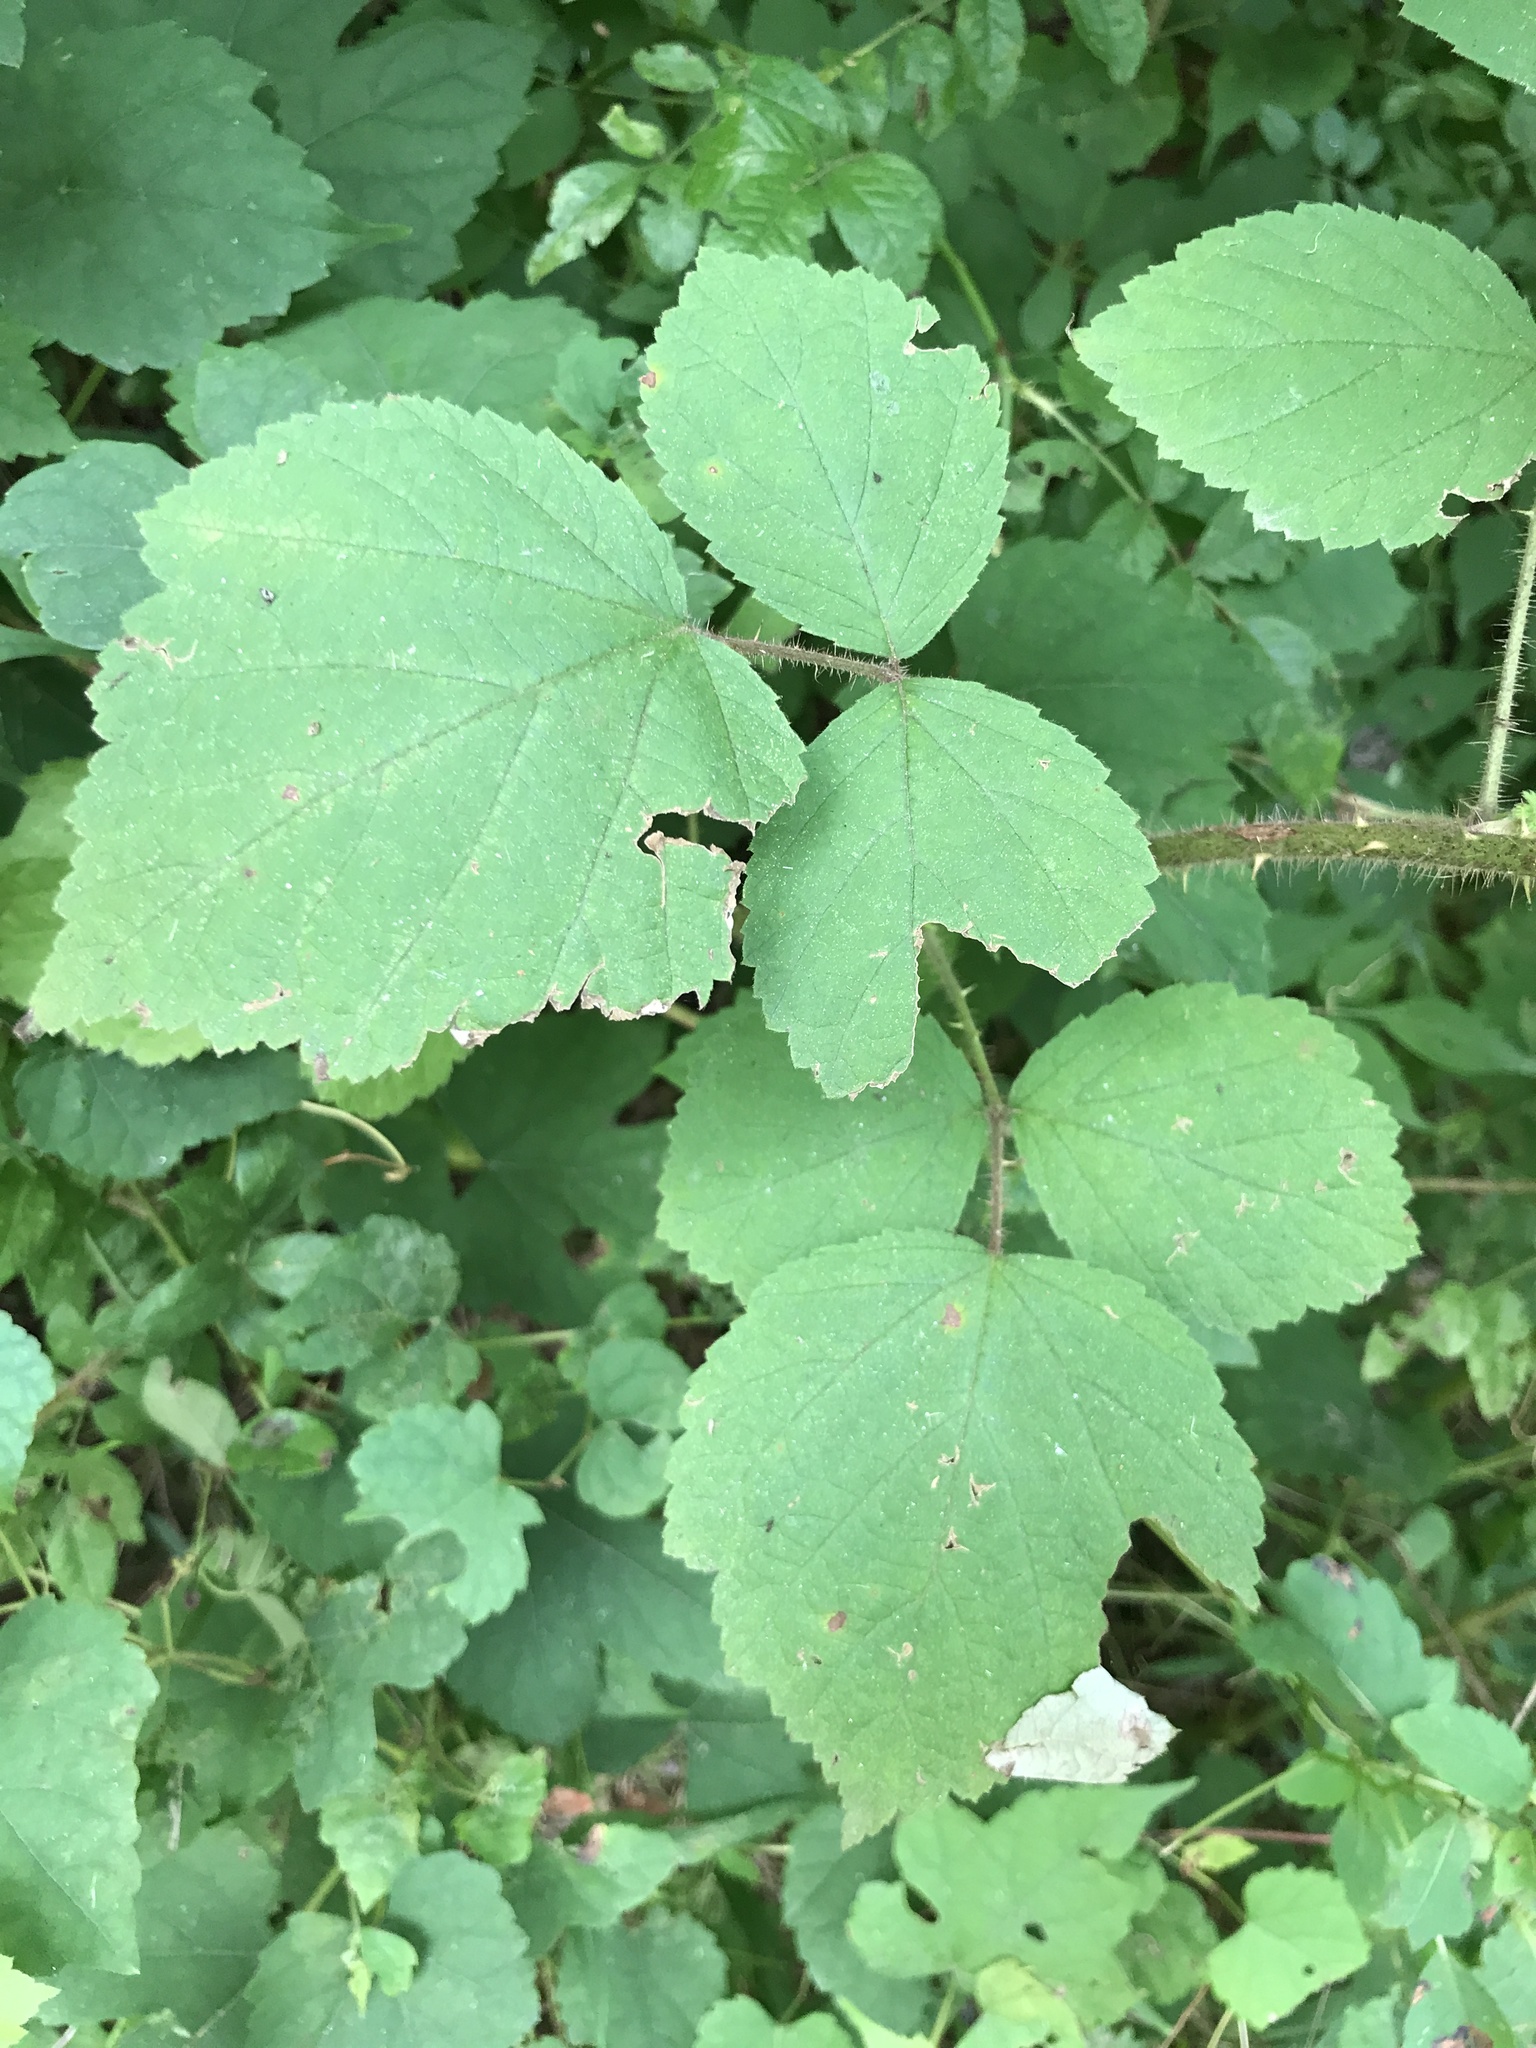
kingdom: Plantae
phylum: Tracheophyta
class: Magnoliopsida
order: Rosales
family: Rosaceae
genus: Rubus
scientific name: Rubus phoenicolasius
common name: Japanese wineberry
